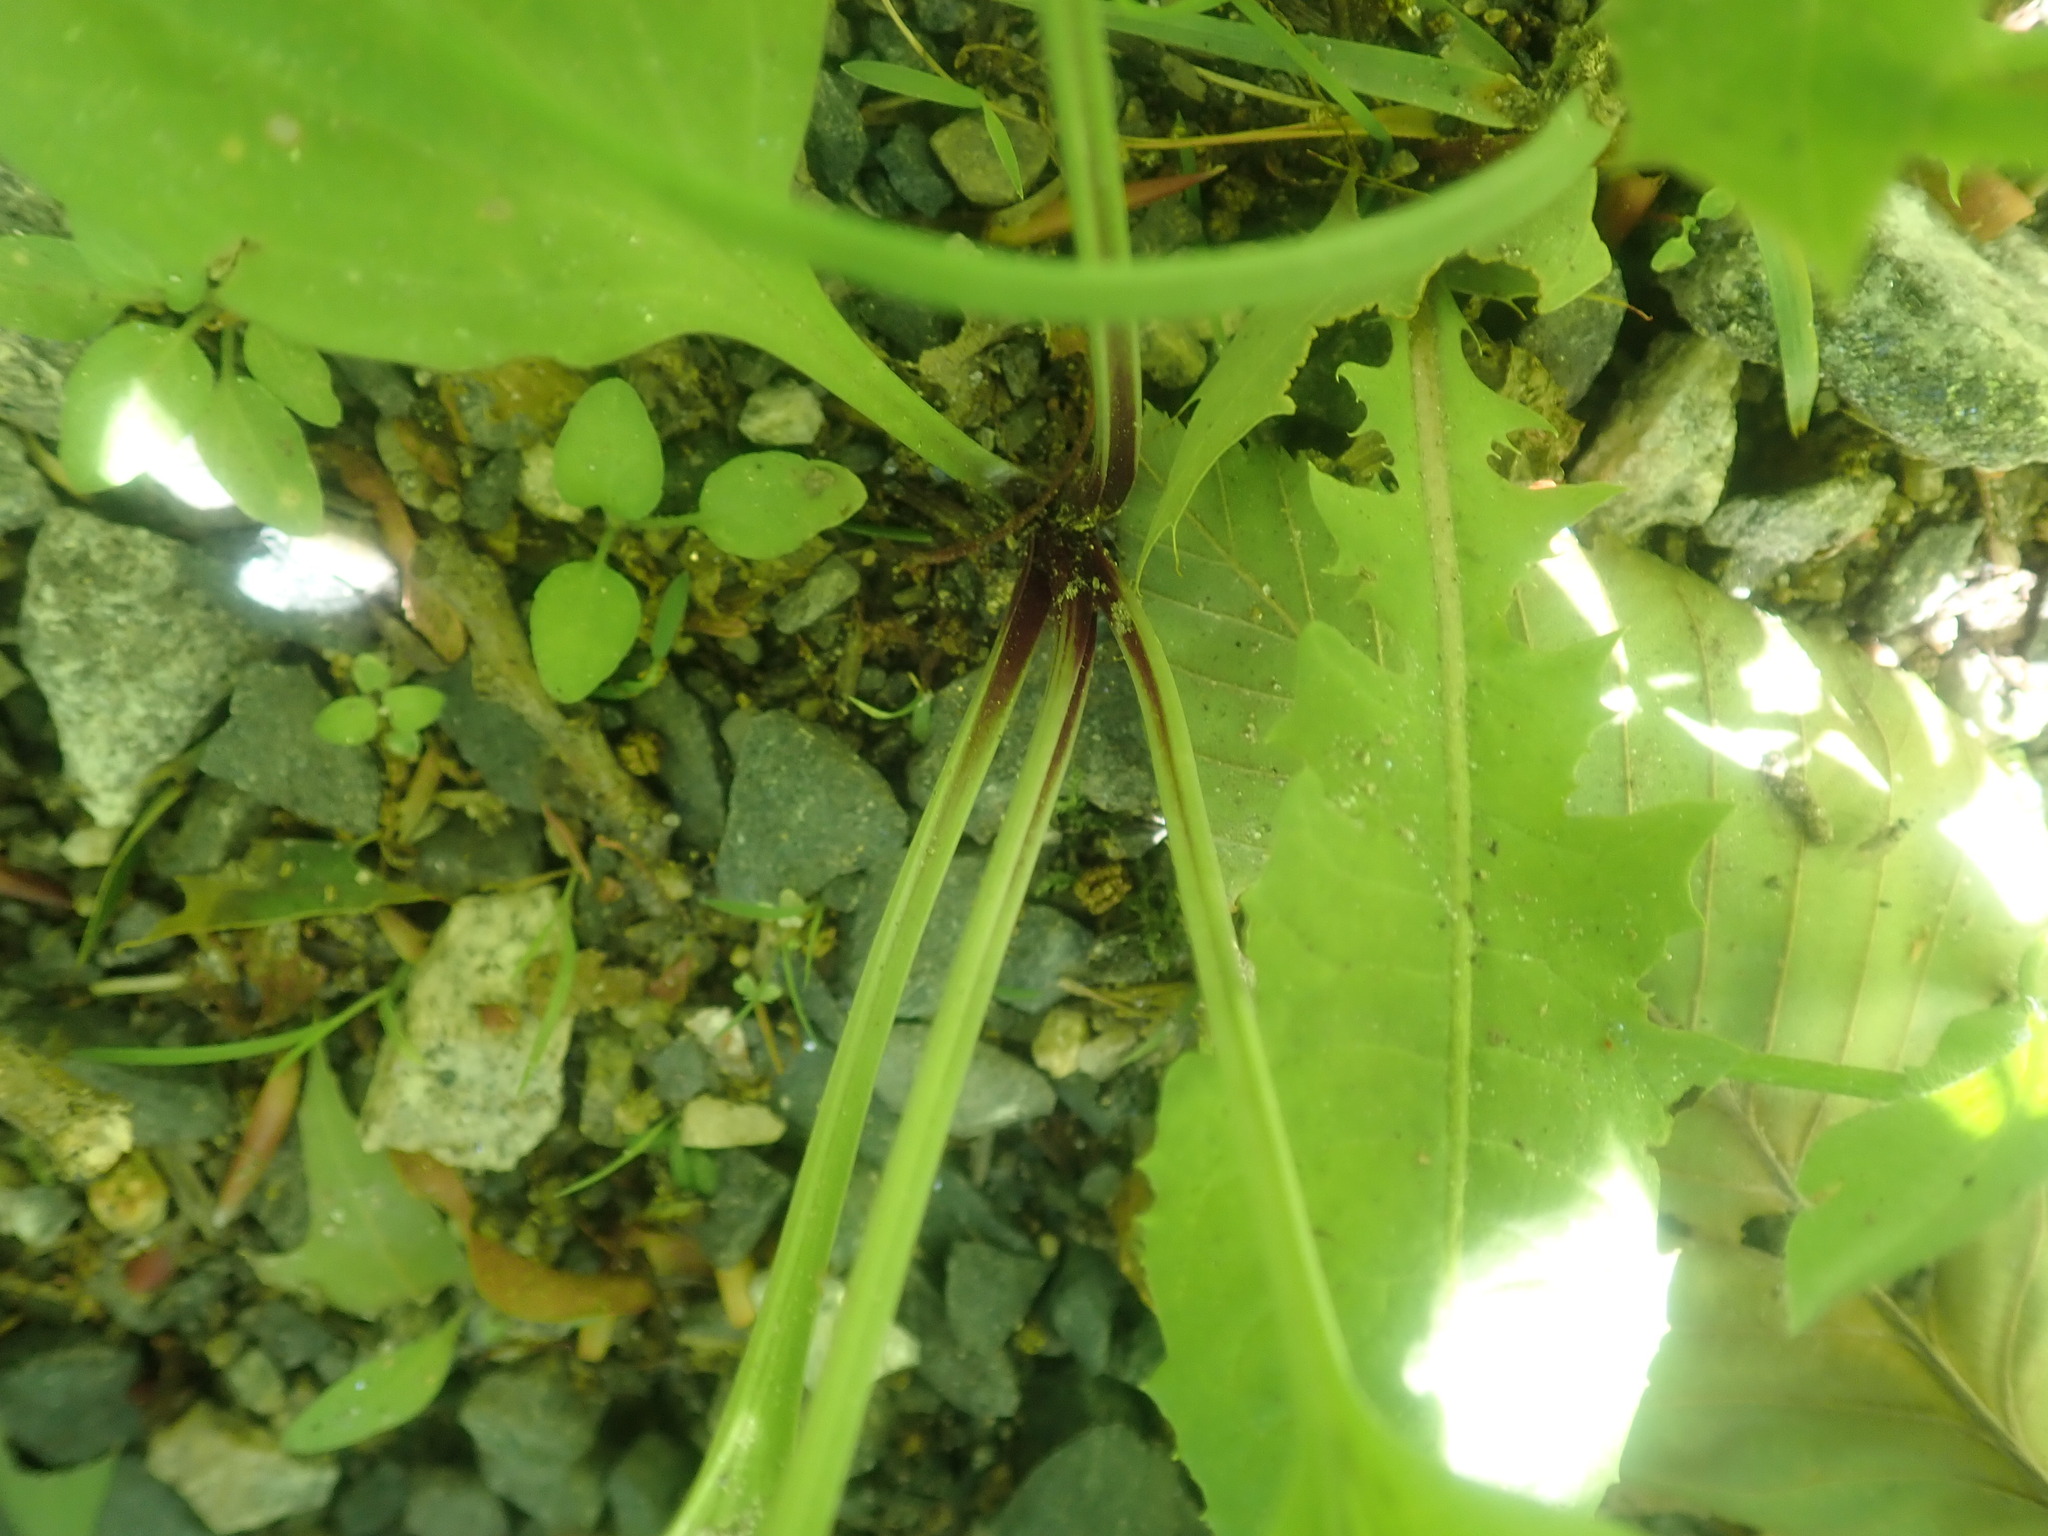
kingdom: Plantae
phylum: Tracheophyta
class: Magnoliopsida
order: Lamiales
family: Plantaginaceae
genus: Plantago
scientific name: Plantago rugelii
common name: American plantain
